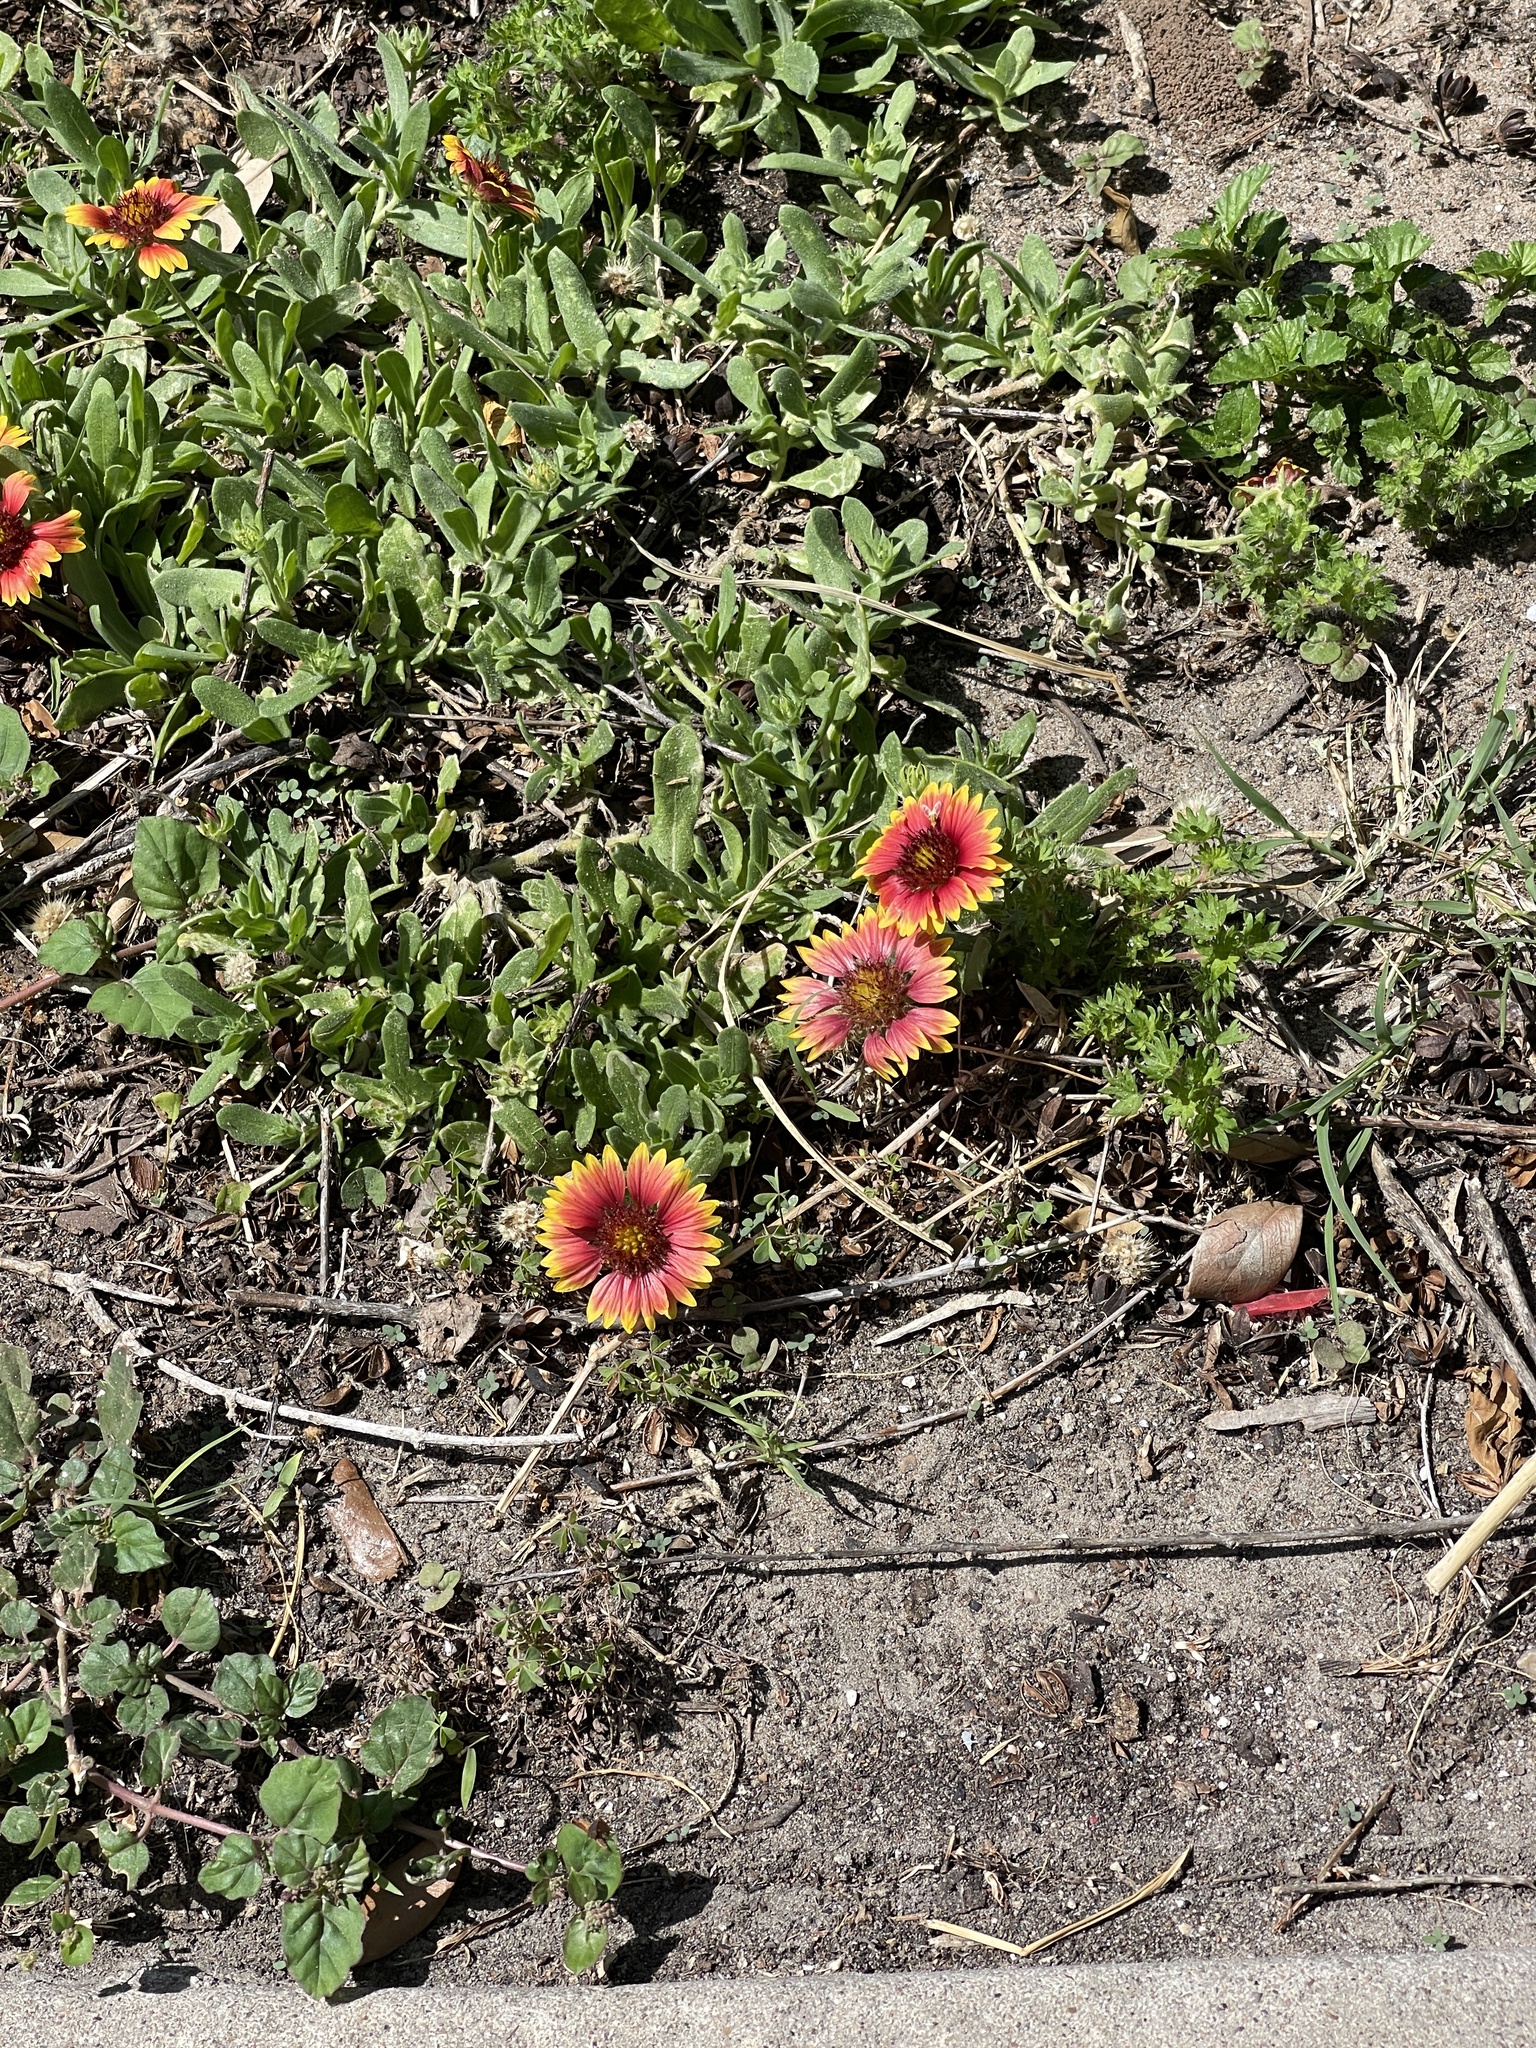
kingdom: Plantae
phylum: Tracheophyta
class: Magnoliopsida
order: Asterales
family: Asteraceae
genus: Gaillardia
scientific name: Gaillardia pulchella
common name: Firewheel
